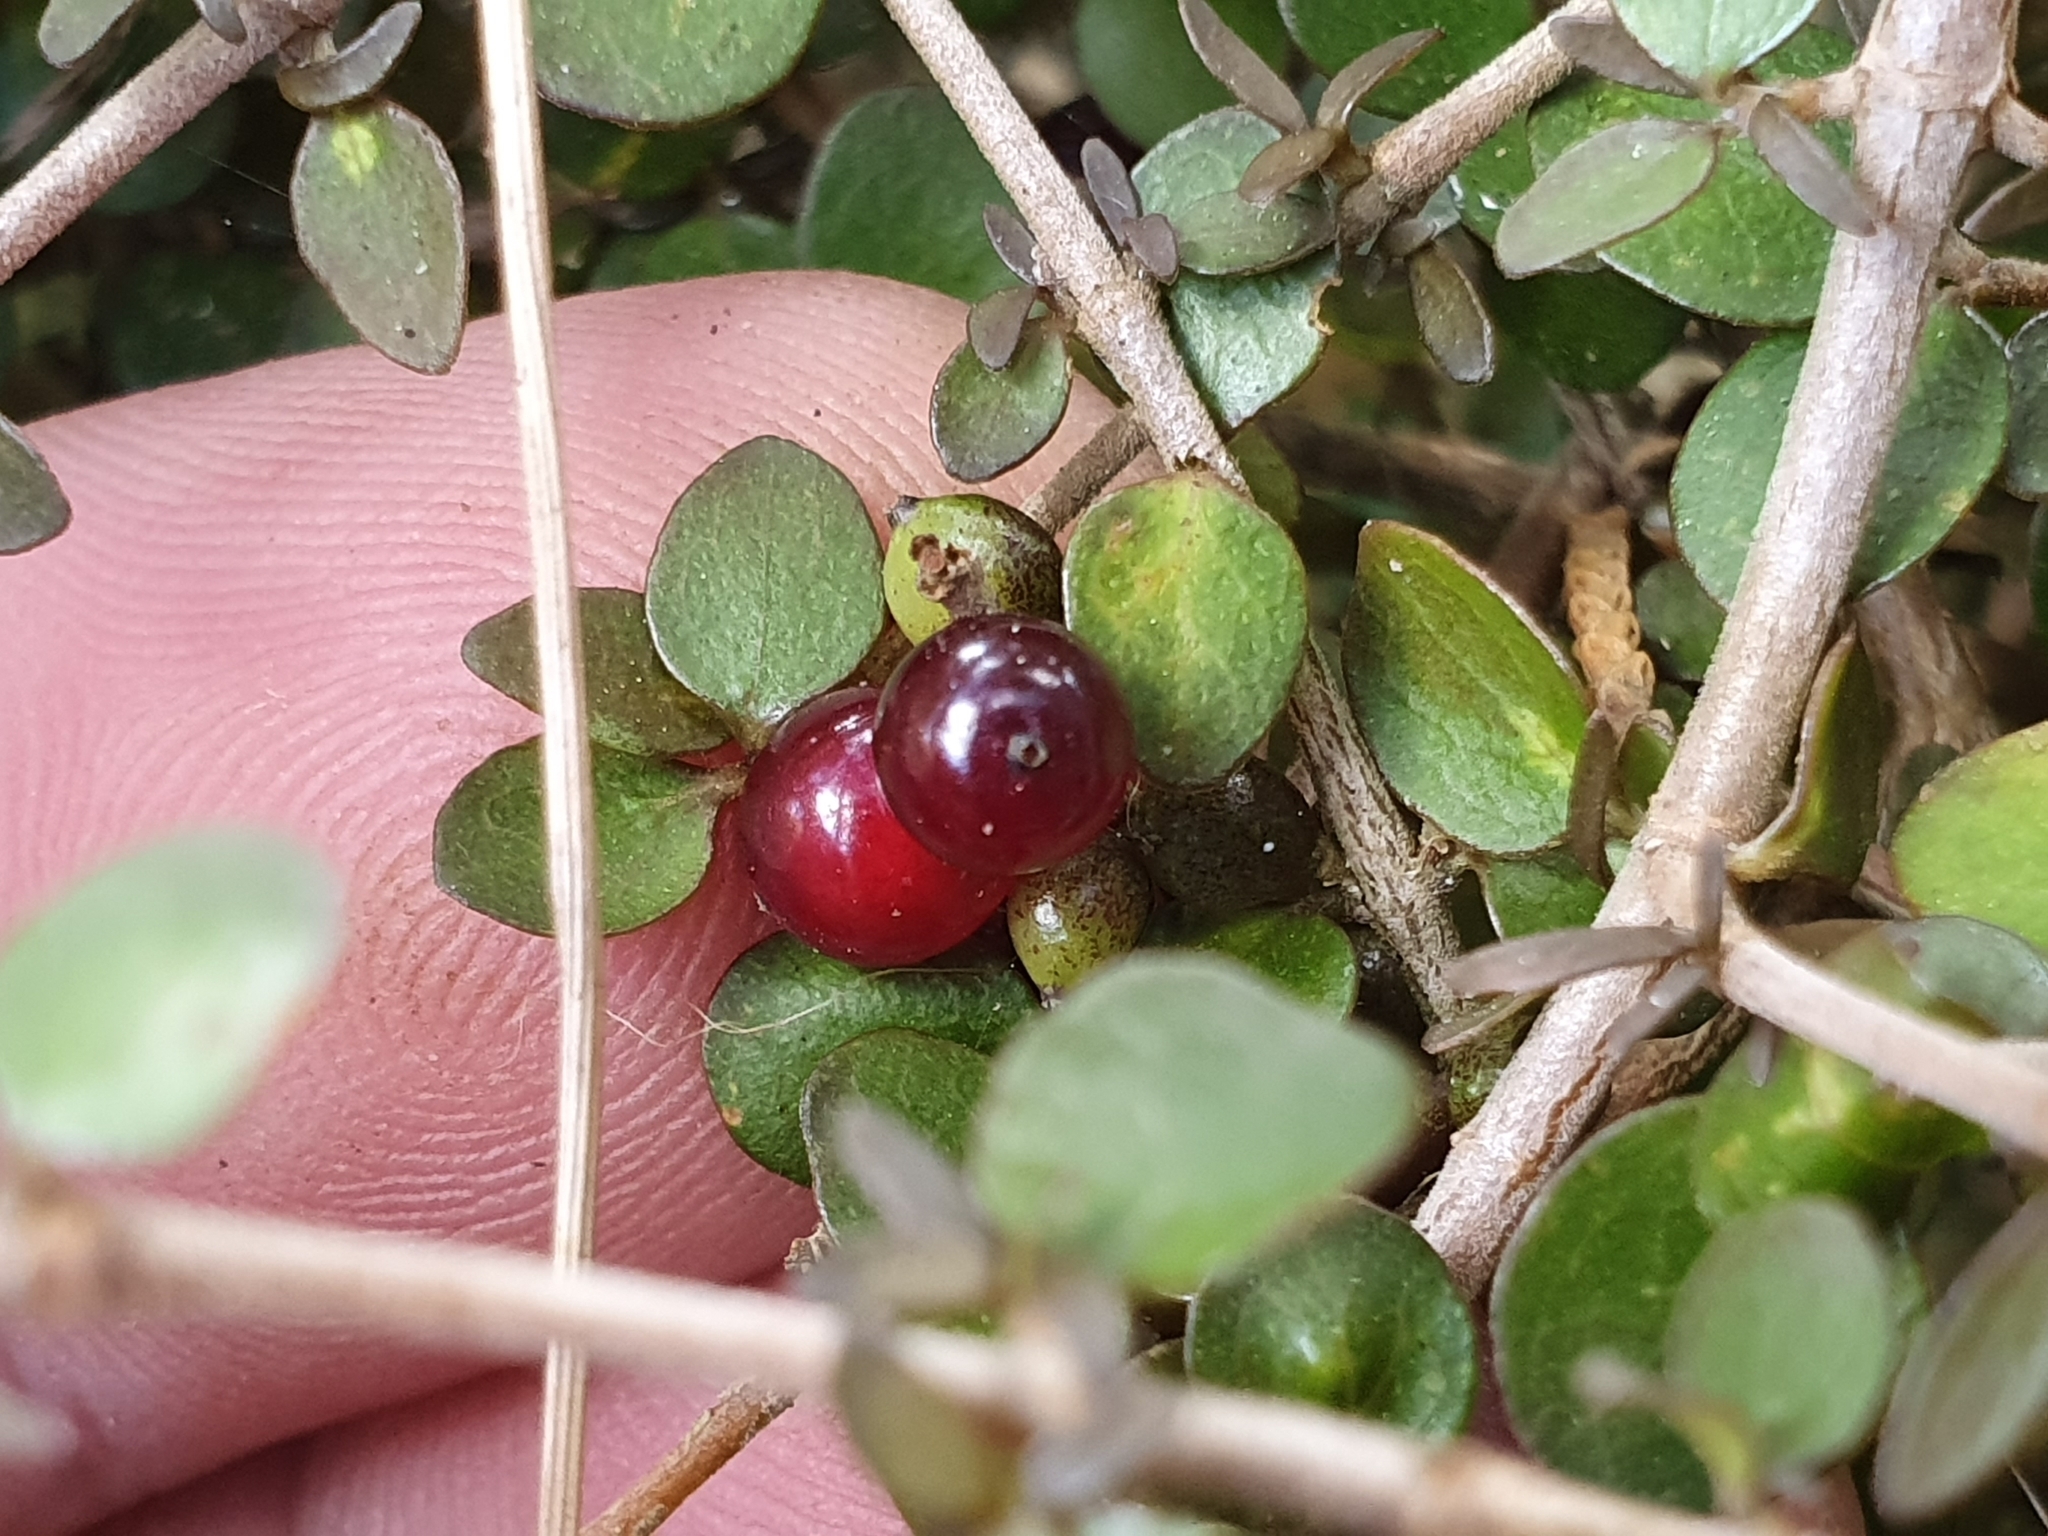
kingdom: Plantae
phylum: Tracheophyta
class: Magnoliopsida
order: Gentianales
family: Rubiaceae
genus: Coprosma
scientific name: Coprosma rhamnoides
